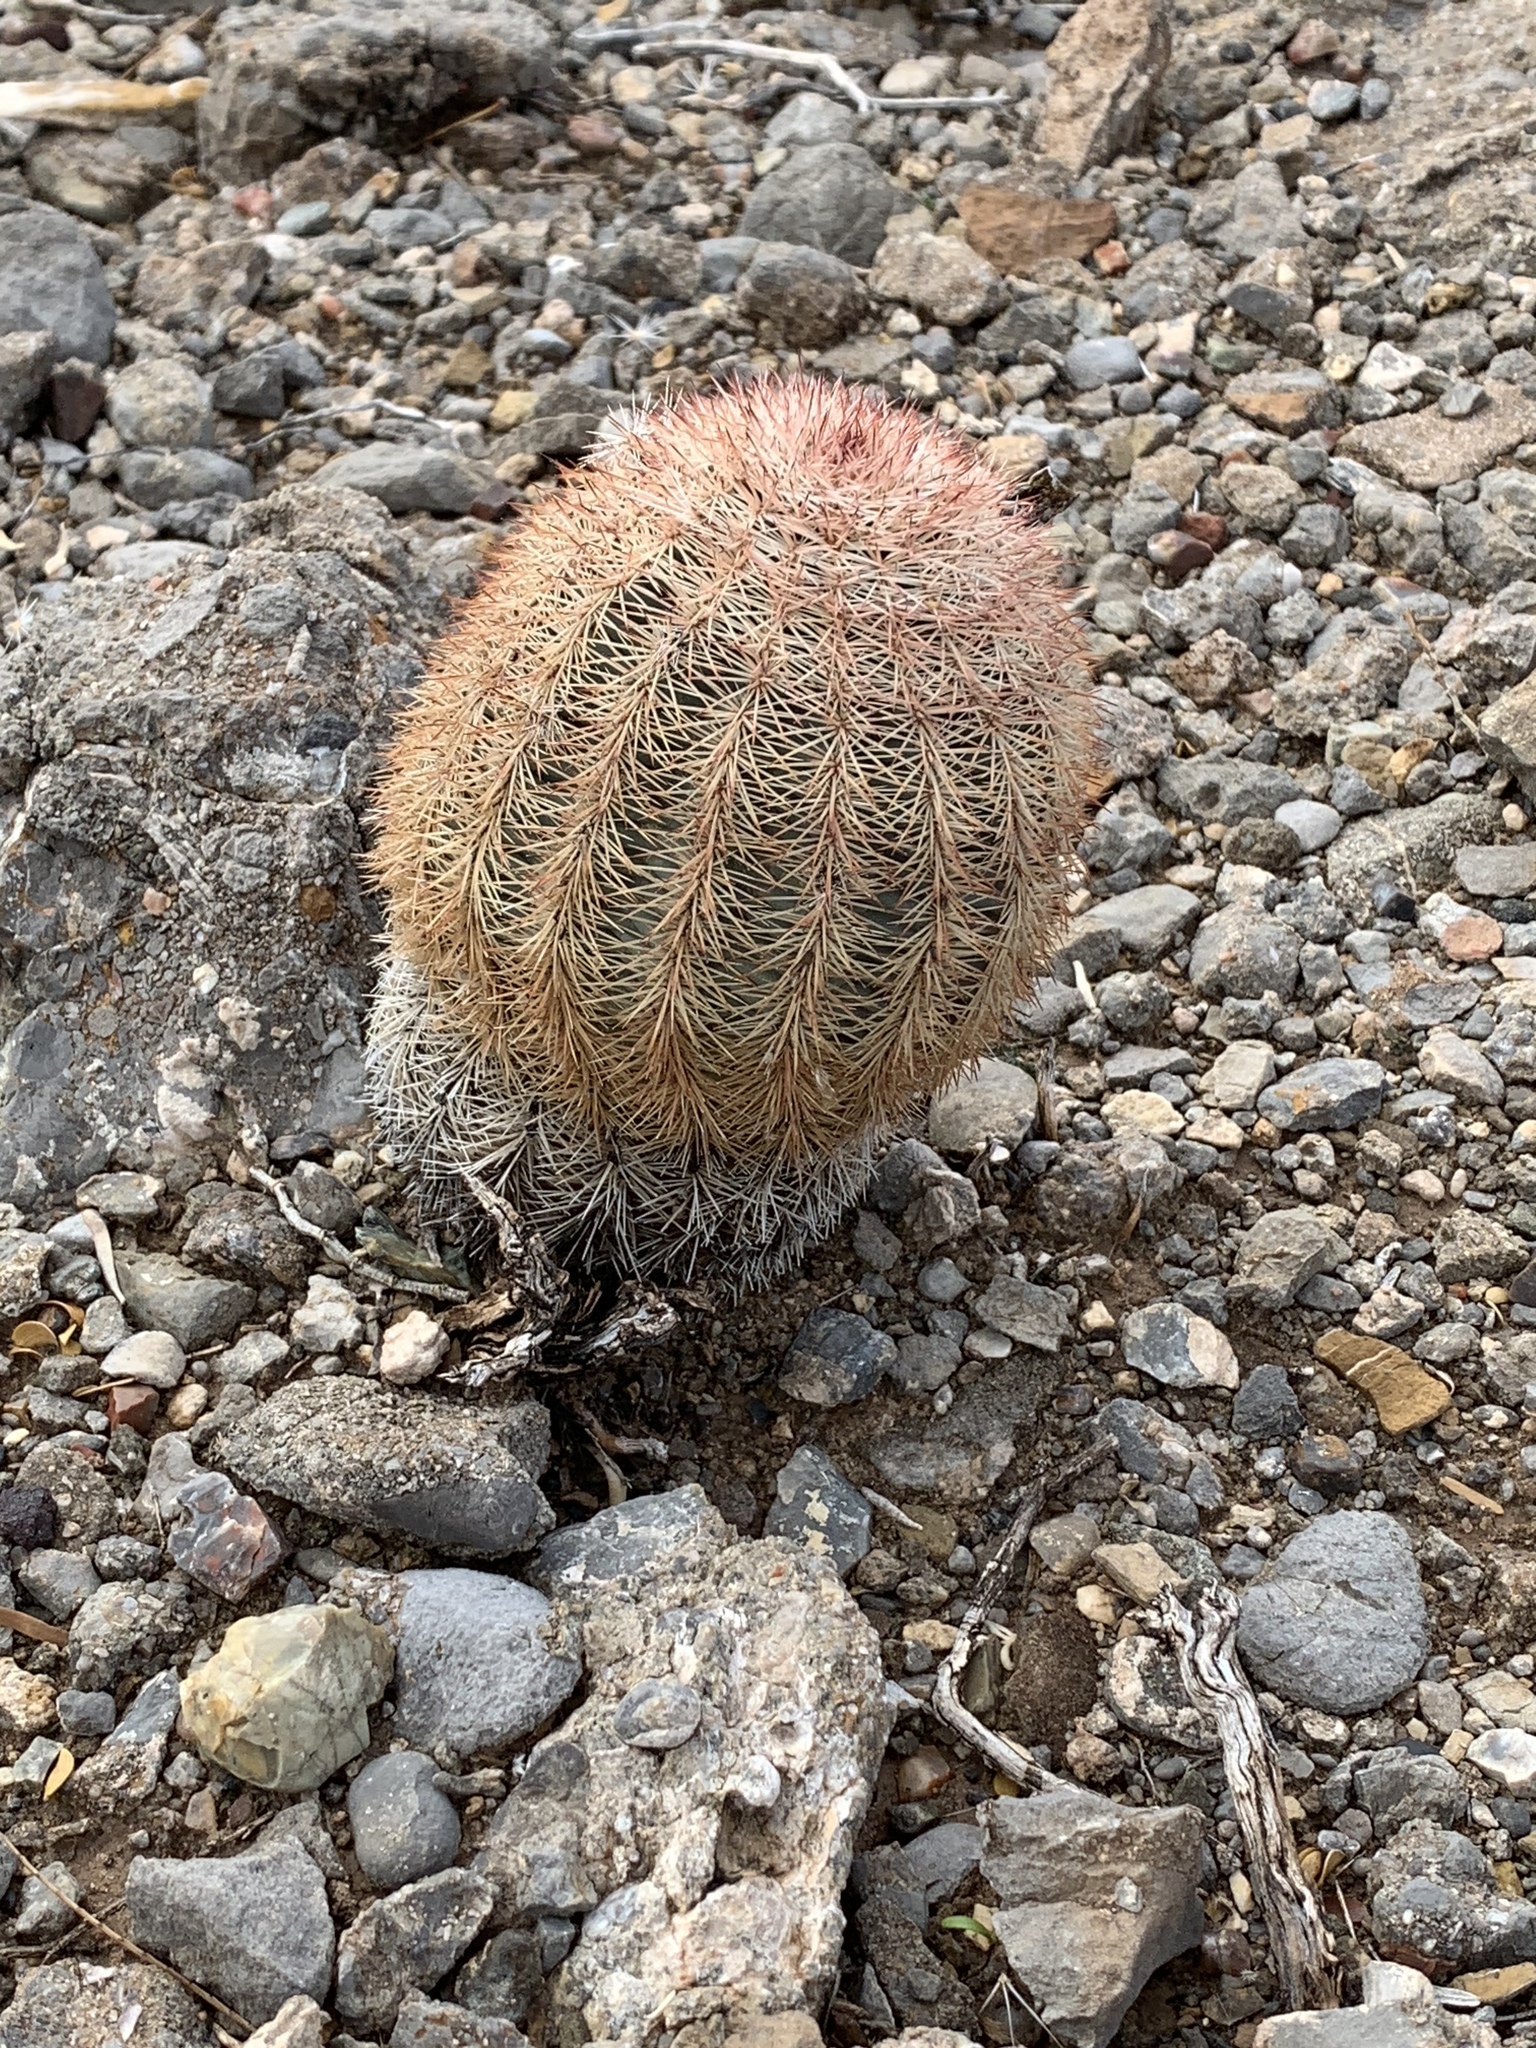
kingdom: Plantae
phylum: Tracheophyta
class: Magnoliopsida
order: Caryophyllales
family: Cactaceae
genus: Echinocereus
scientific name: Echinocereus dasyacanthus
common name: Spiny hedgehog cactus
